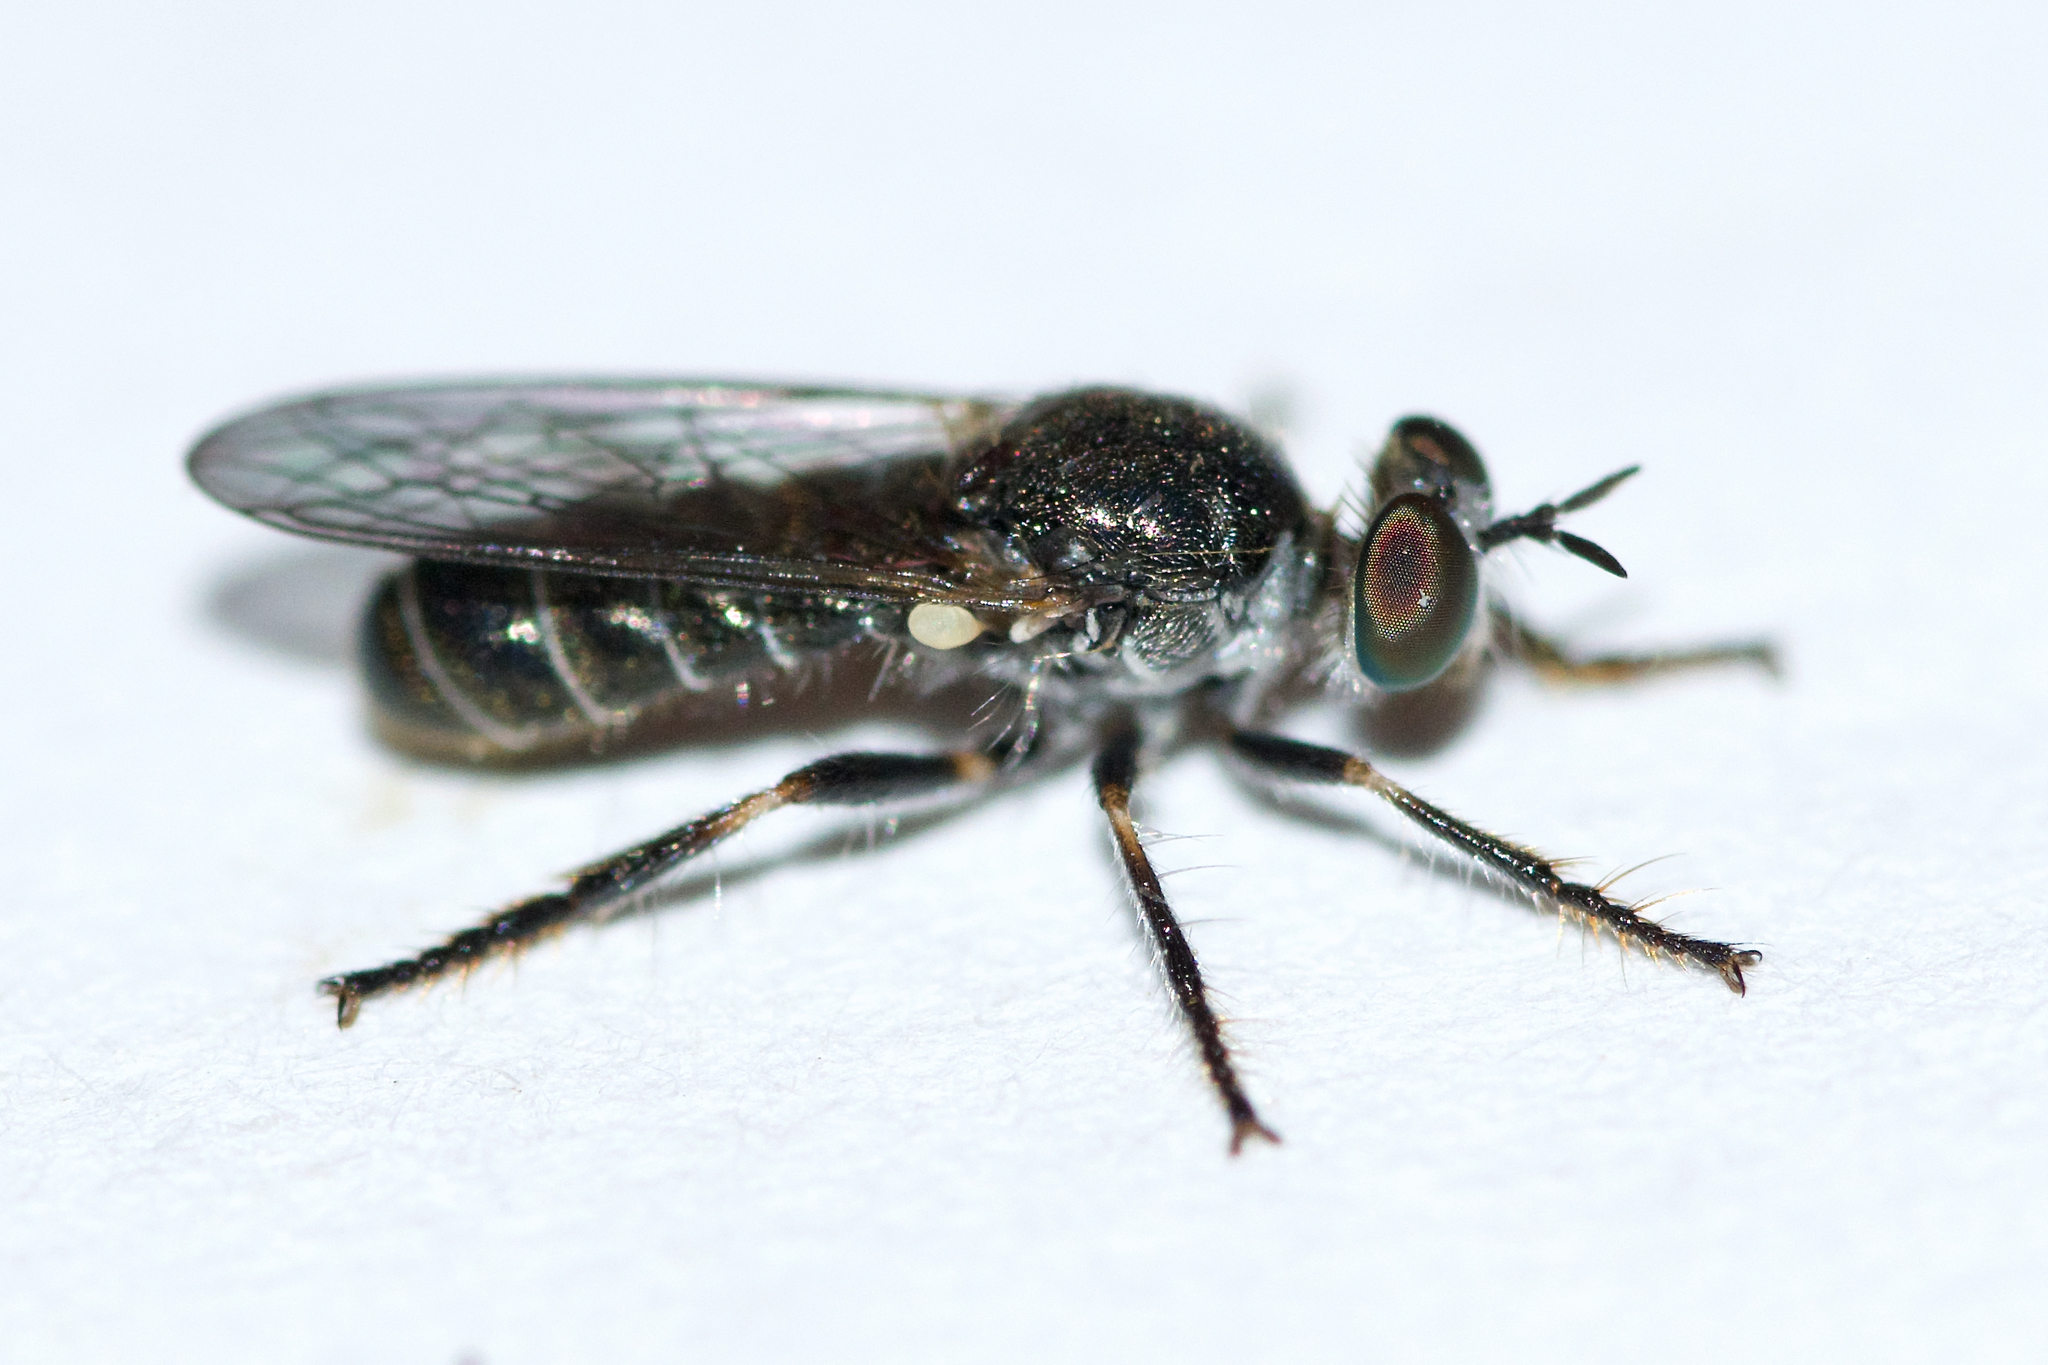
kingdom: Animalia
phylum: Arthropoda
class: Insecta
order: Diptera
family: Asilidae
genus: Atomosia
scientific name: Atomosia puella
